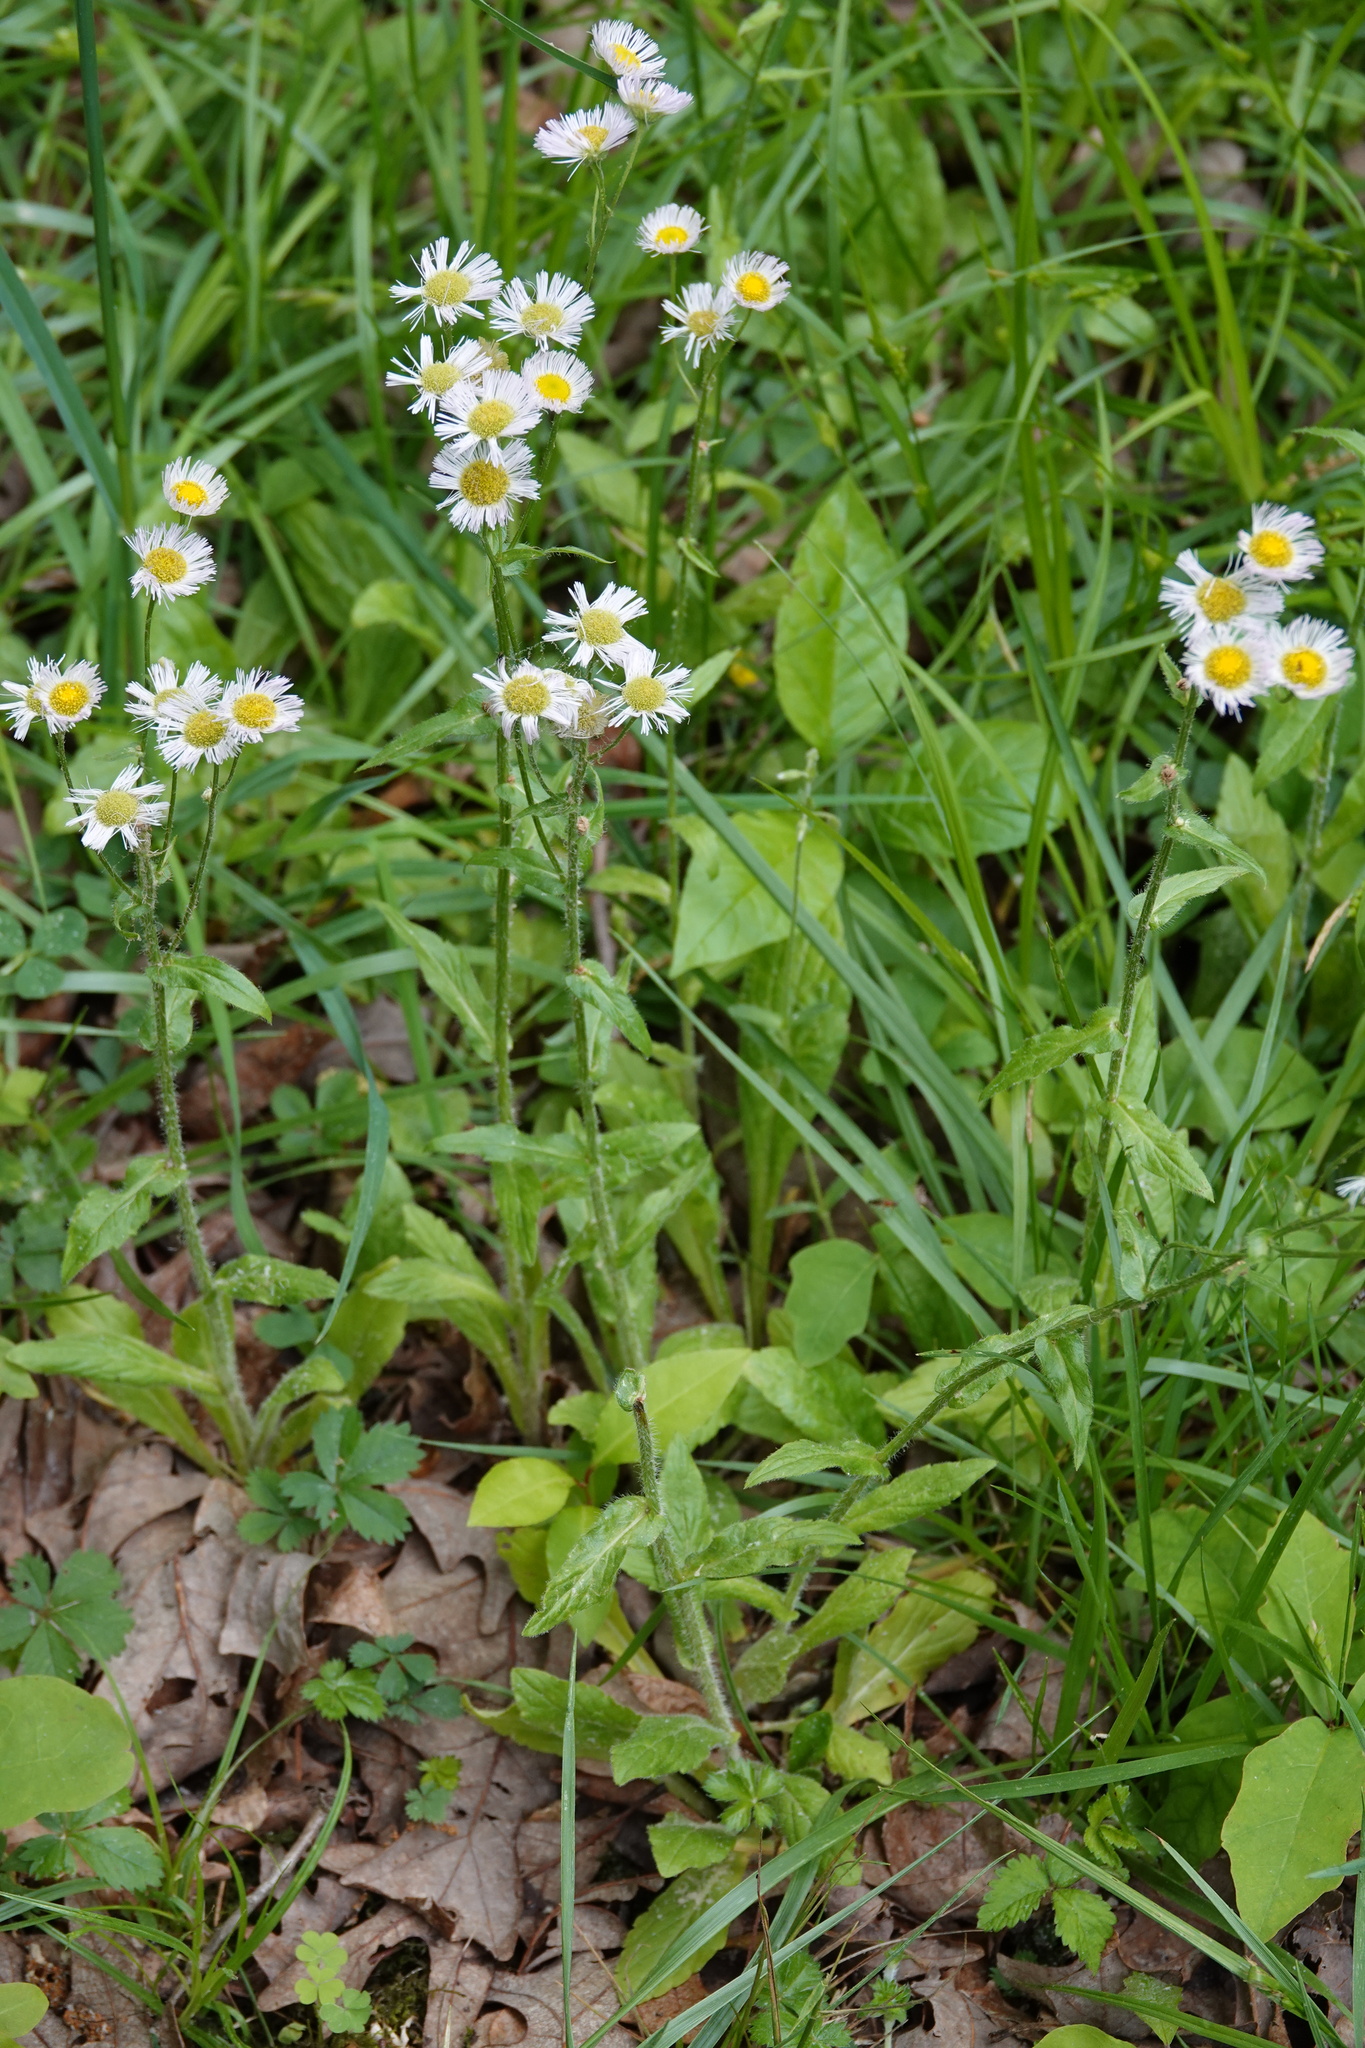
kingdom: Plantae
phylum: Tracheophyta
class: Magnoliopsida
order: Asterales
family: Asteraceae
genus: Erigeron
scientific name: Erigeron philadelphicus
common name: Robin's-plantain
